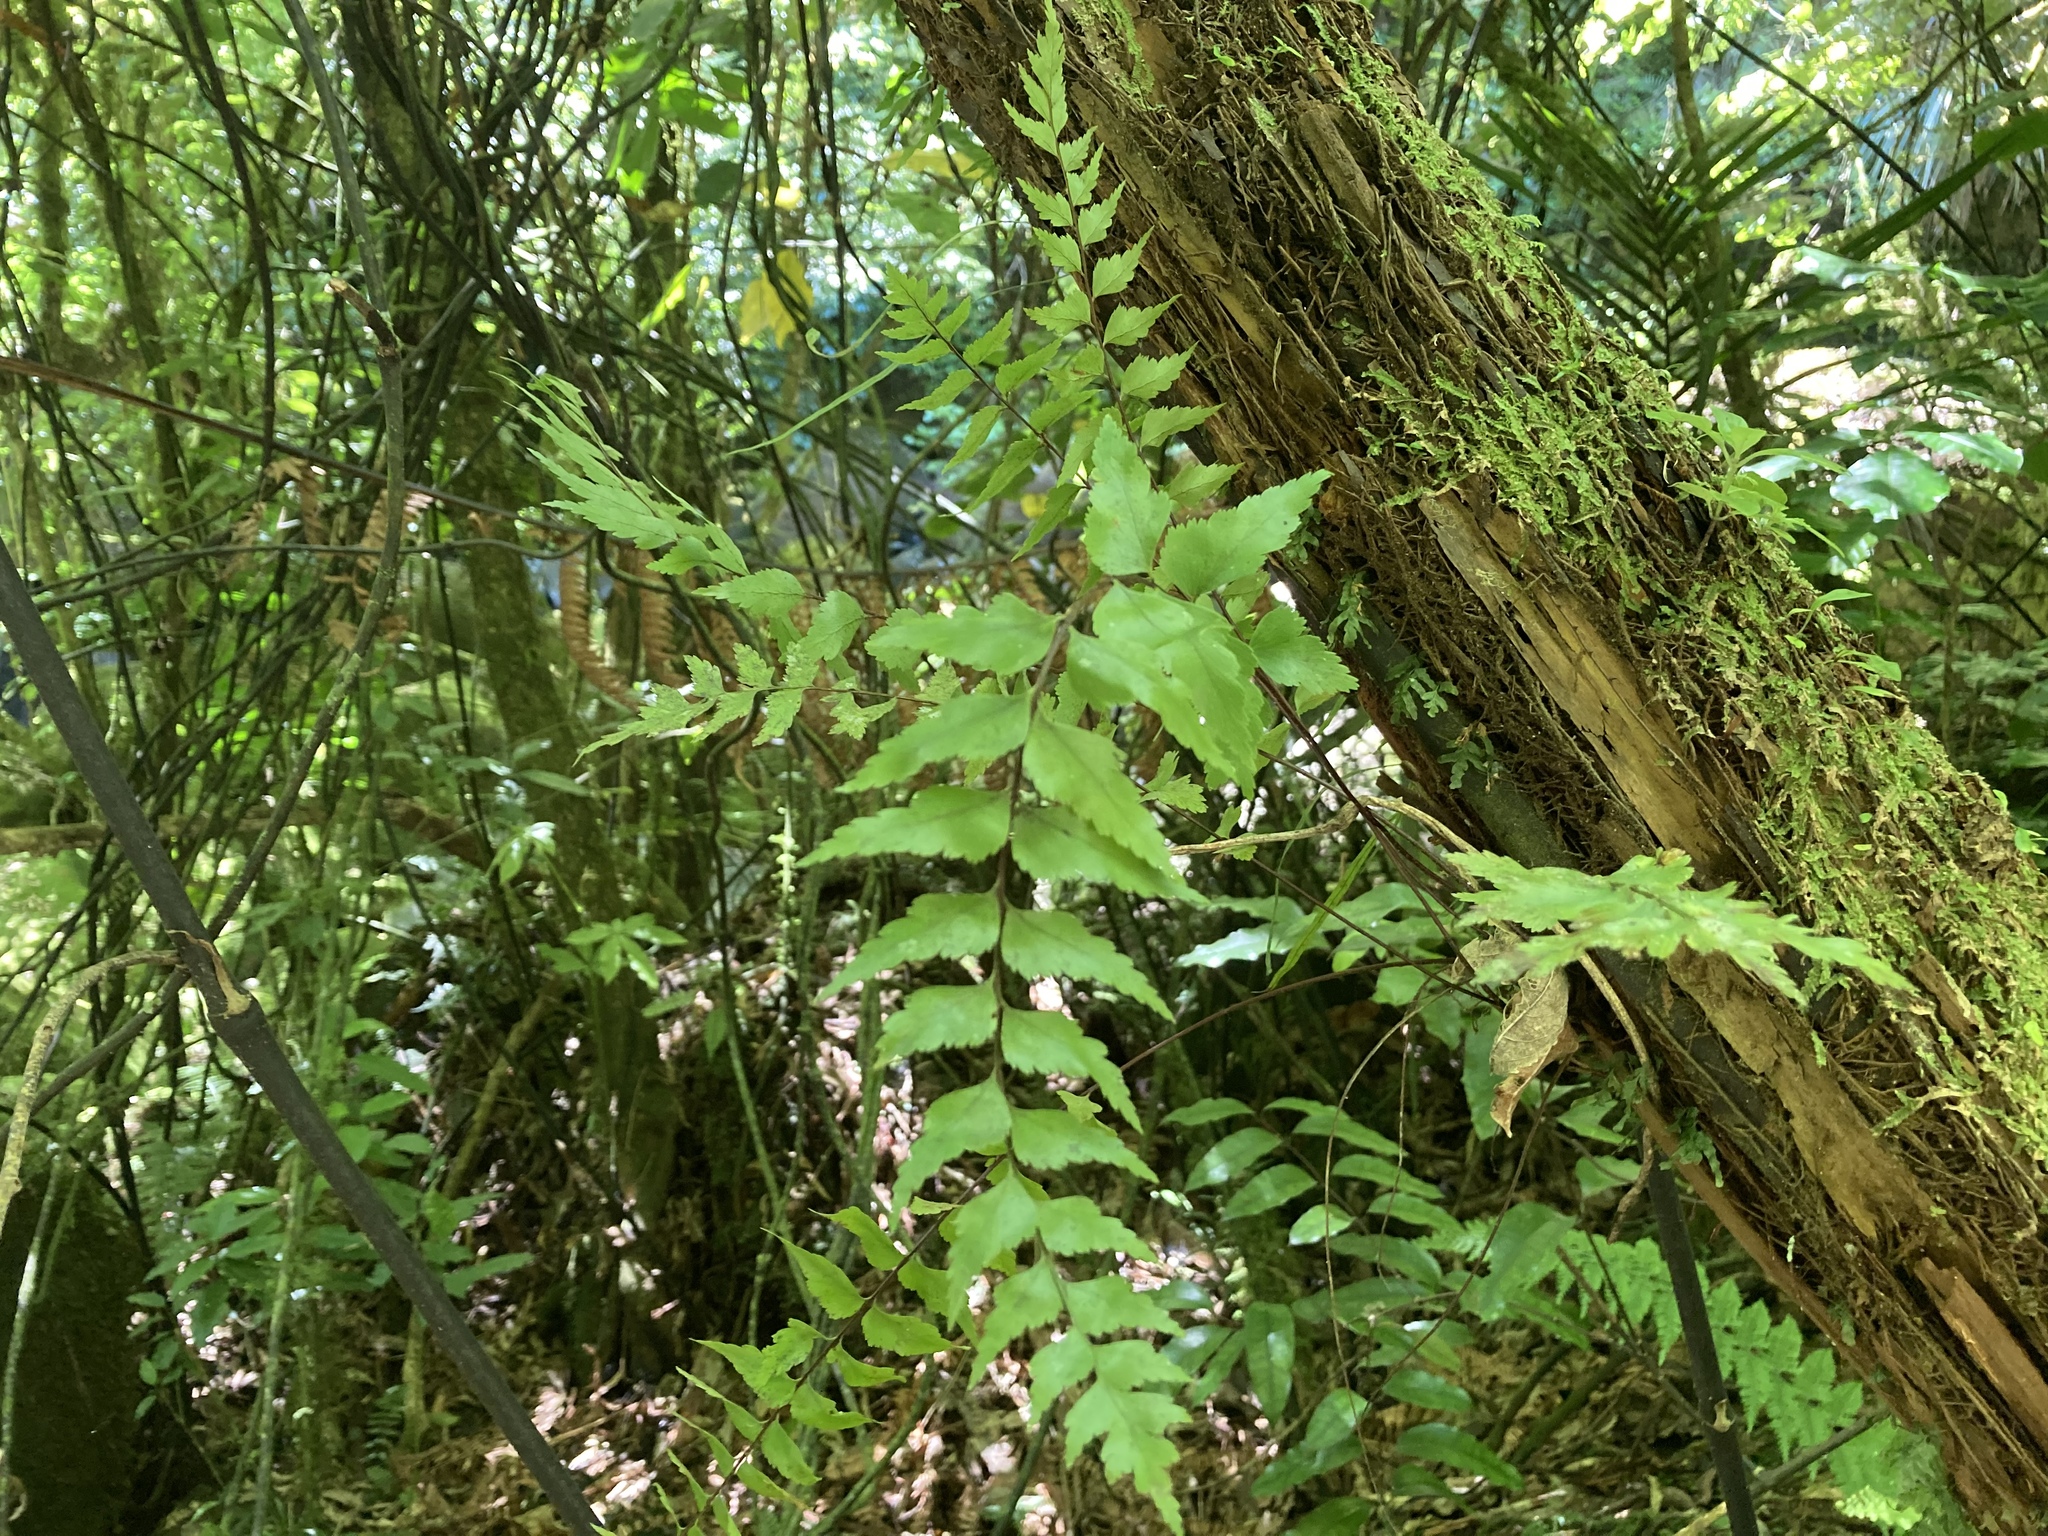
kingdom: Plantae
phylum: Tracheophyta
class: Polypodiopsida
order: Polypodiales
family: Aspleniaceae
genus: Asplenium
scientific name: Asplenium polyodon
